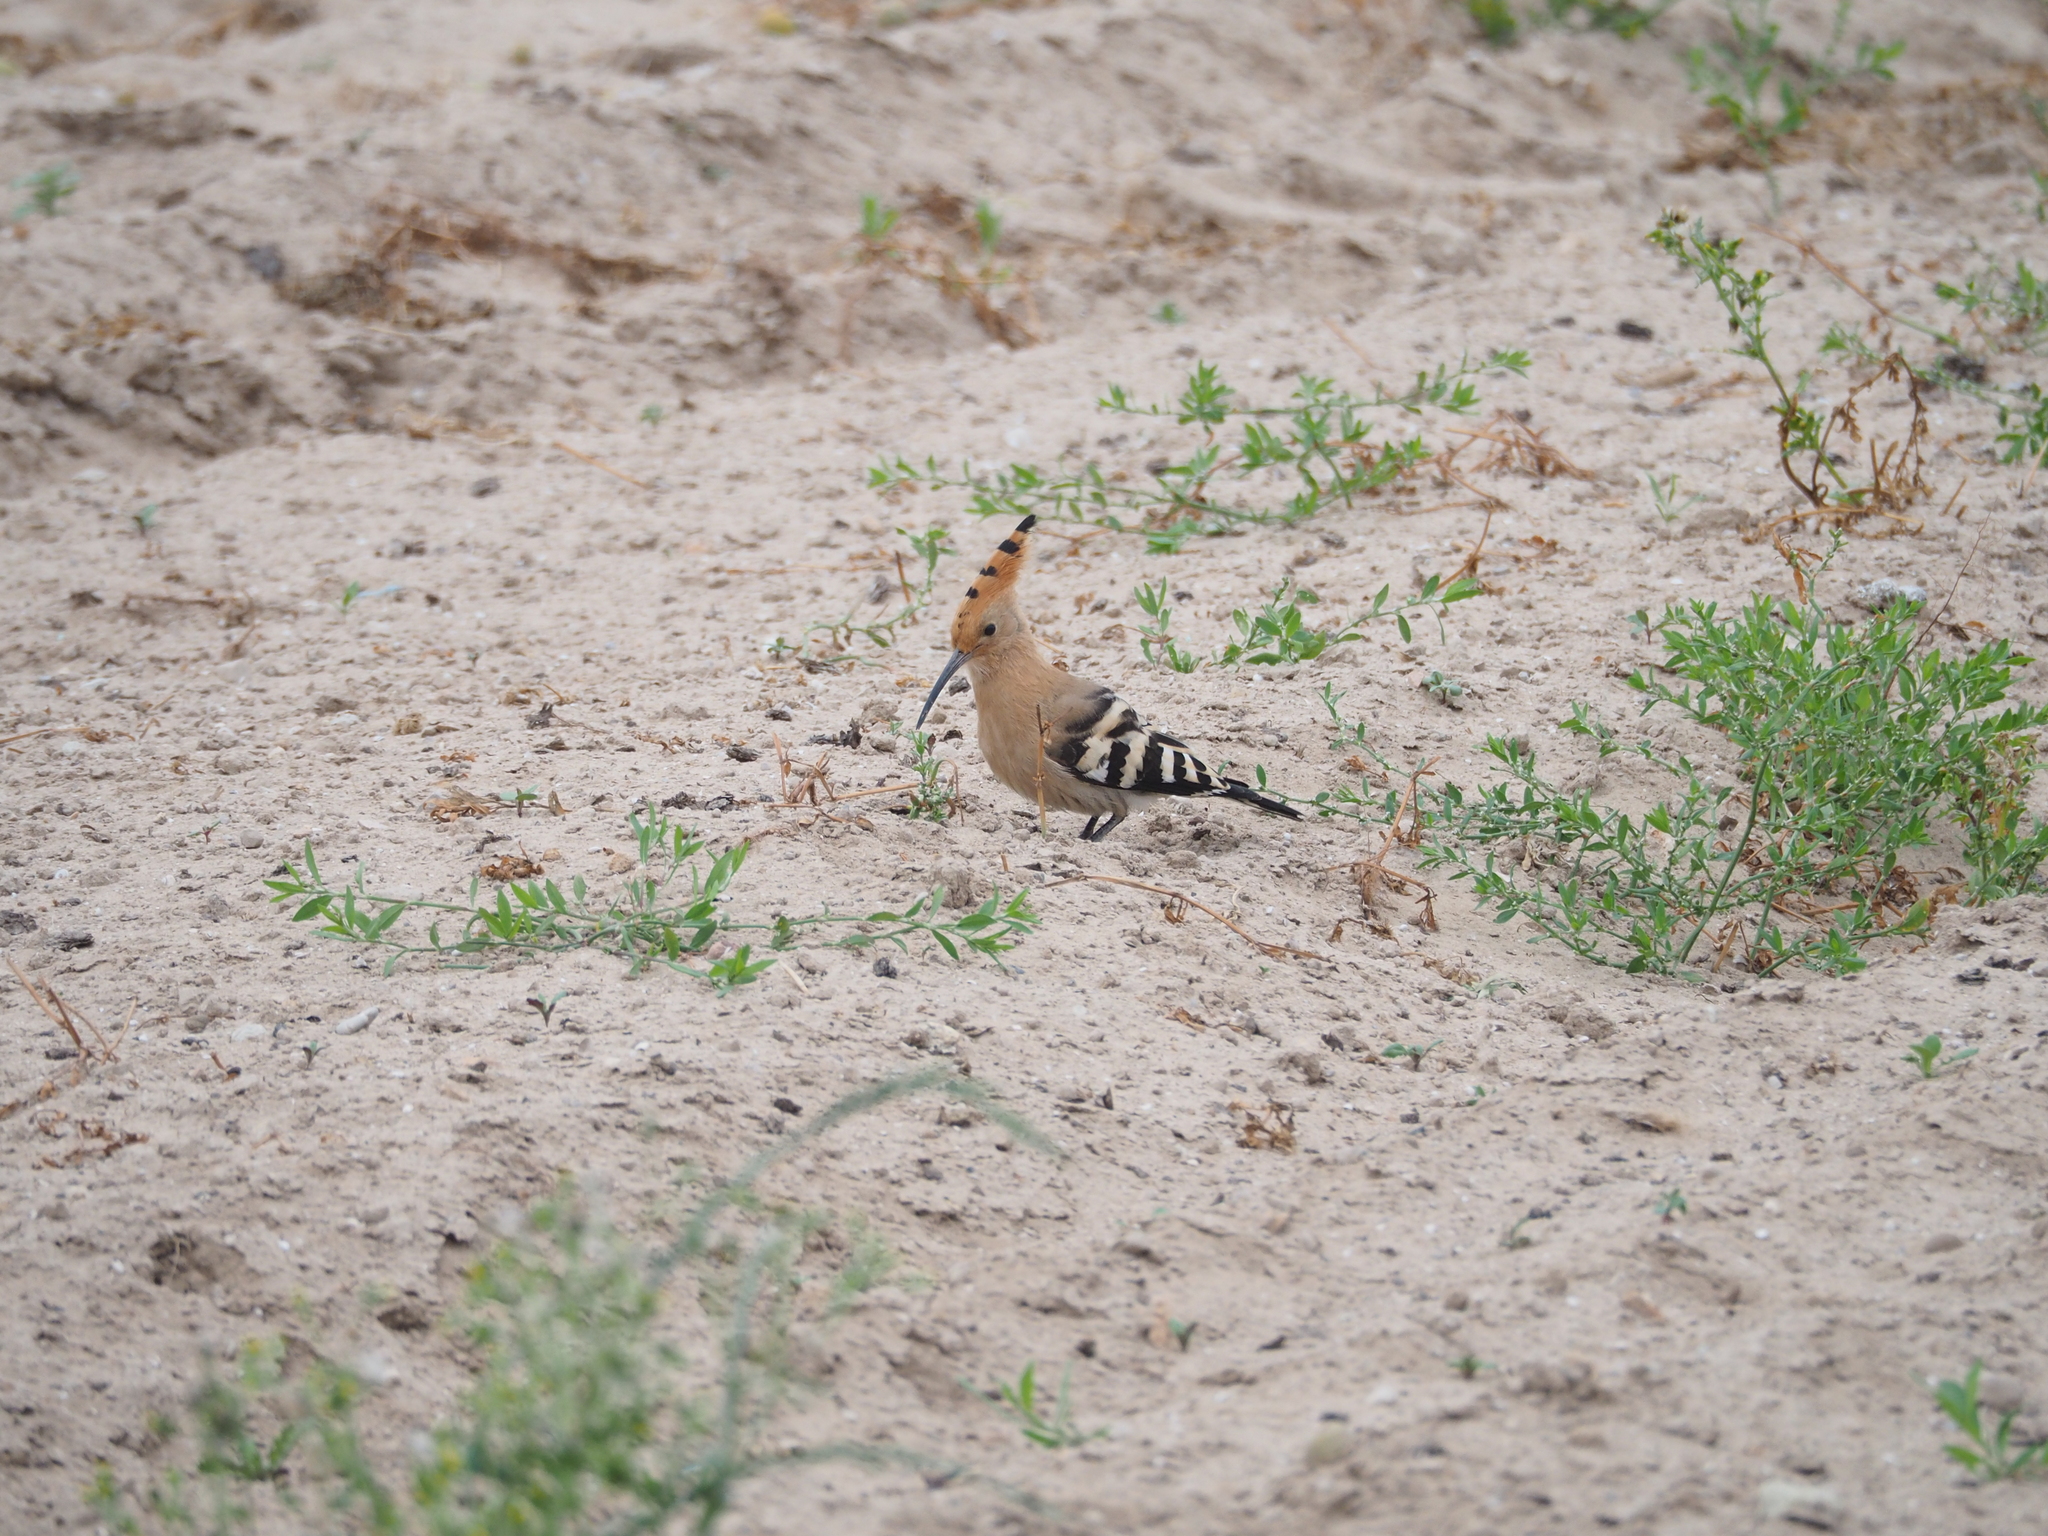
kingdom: Animalia
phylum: Chordata
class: Aves
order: Bucerotiformes
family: Upupidae
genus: Upupa
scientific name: Upupa epops
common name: Eurasian hoopoe
